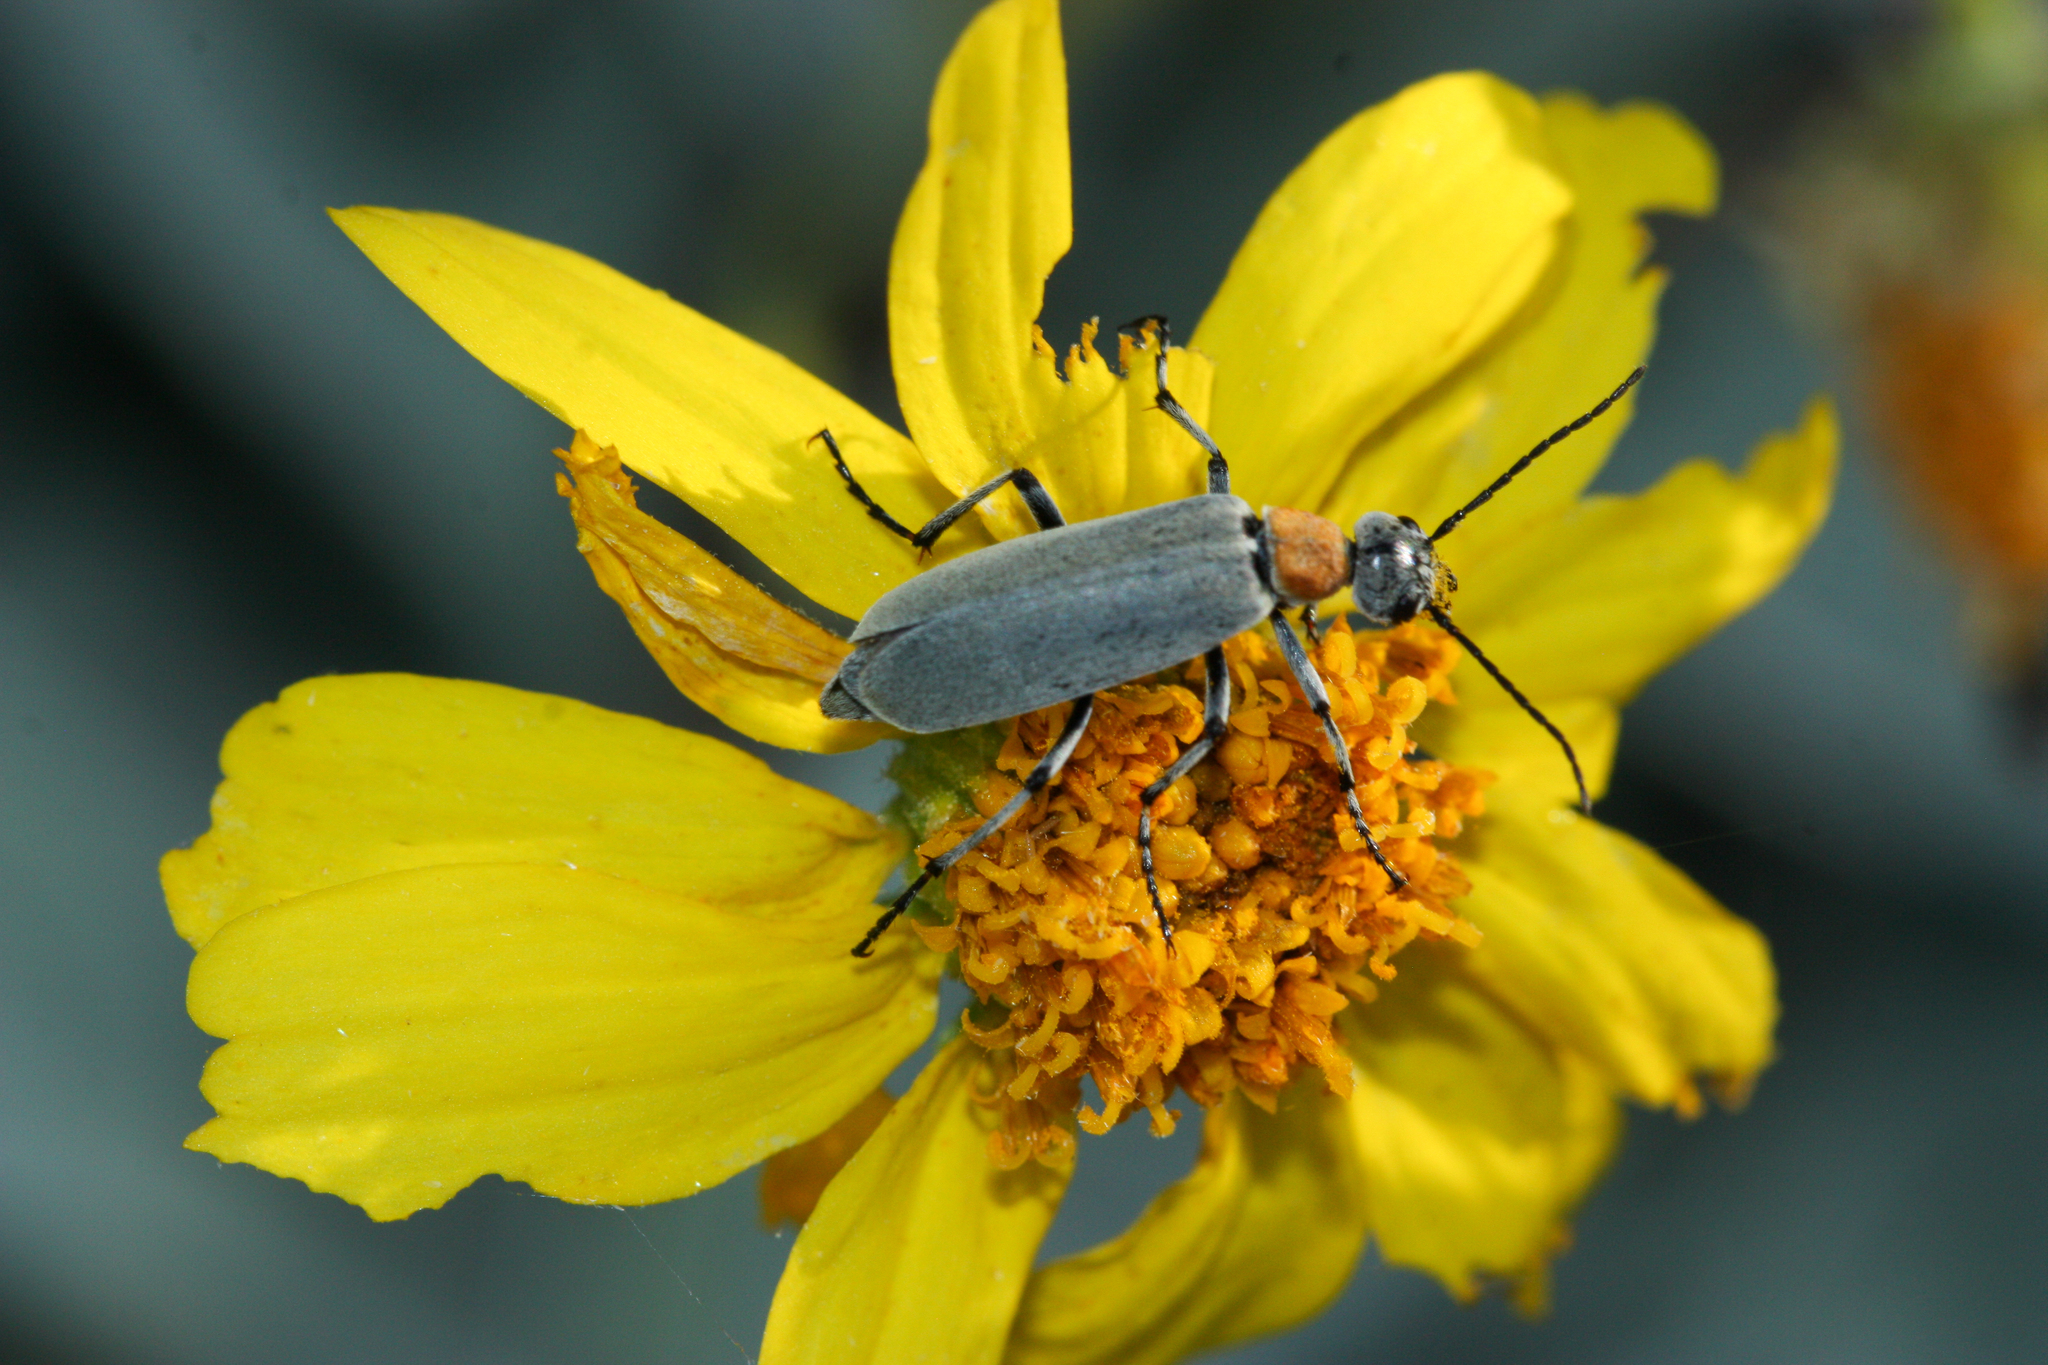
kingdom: Animalia
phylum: Arthropoda
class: Insecta
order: Coleoptera
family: Meloidae
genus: Epicauta
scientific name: Epicauta wheeleri
